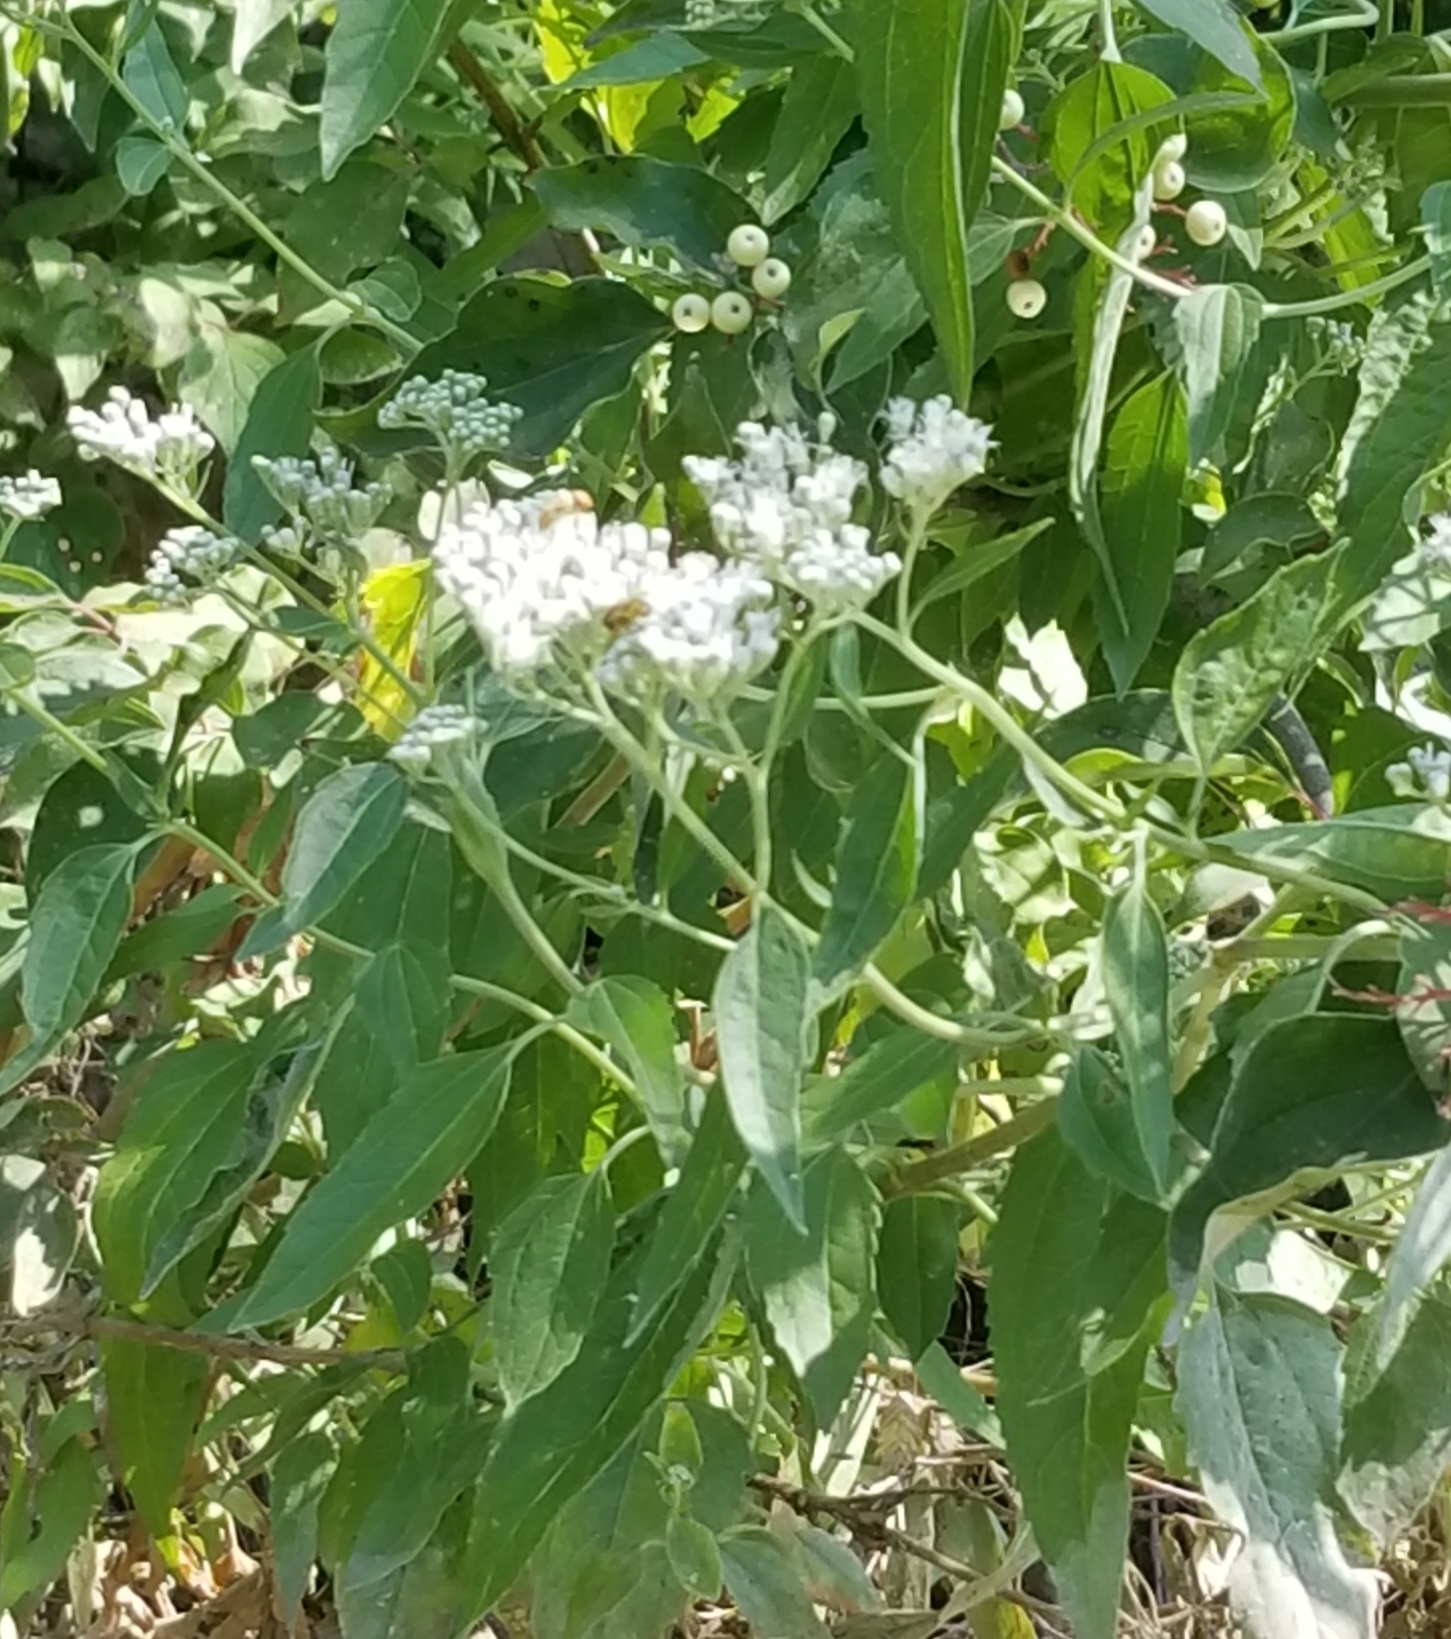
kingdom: Plantae
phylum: Tracheophyta
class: Magnoliopsida
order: Asterales
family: Asteraceae
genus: Eupatorium
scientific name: Eupatorium serotinum
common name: Late boneset
